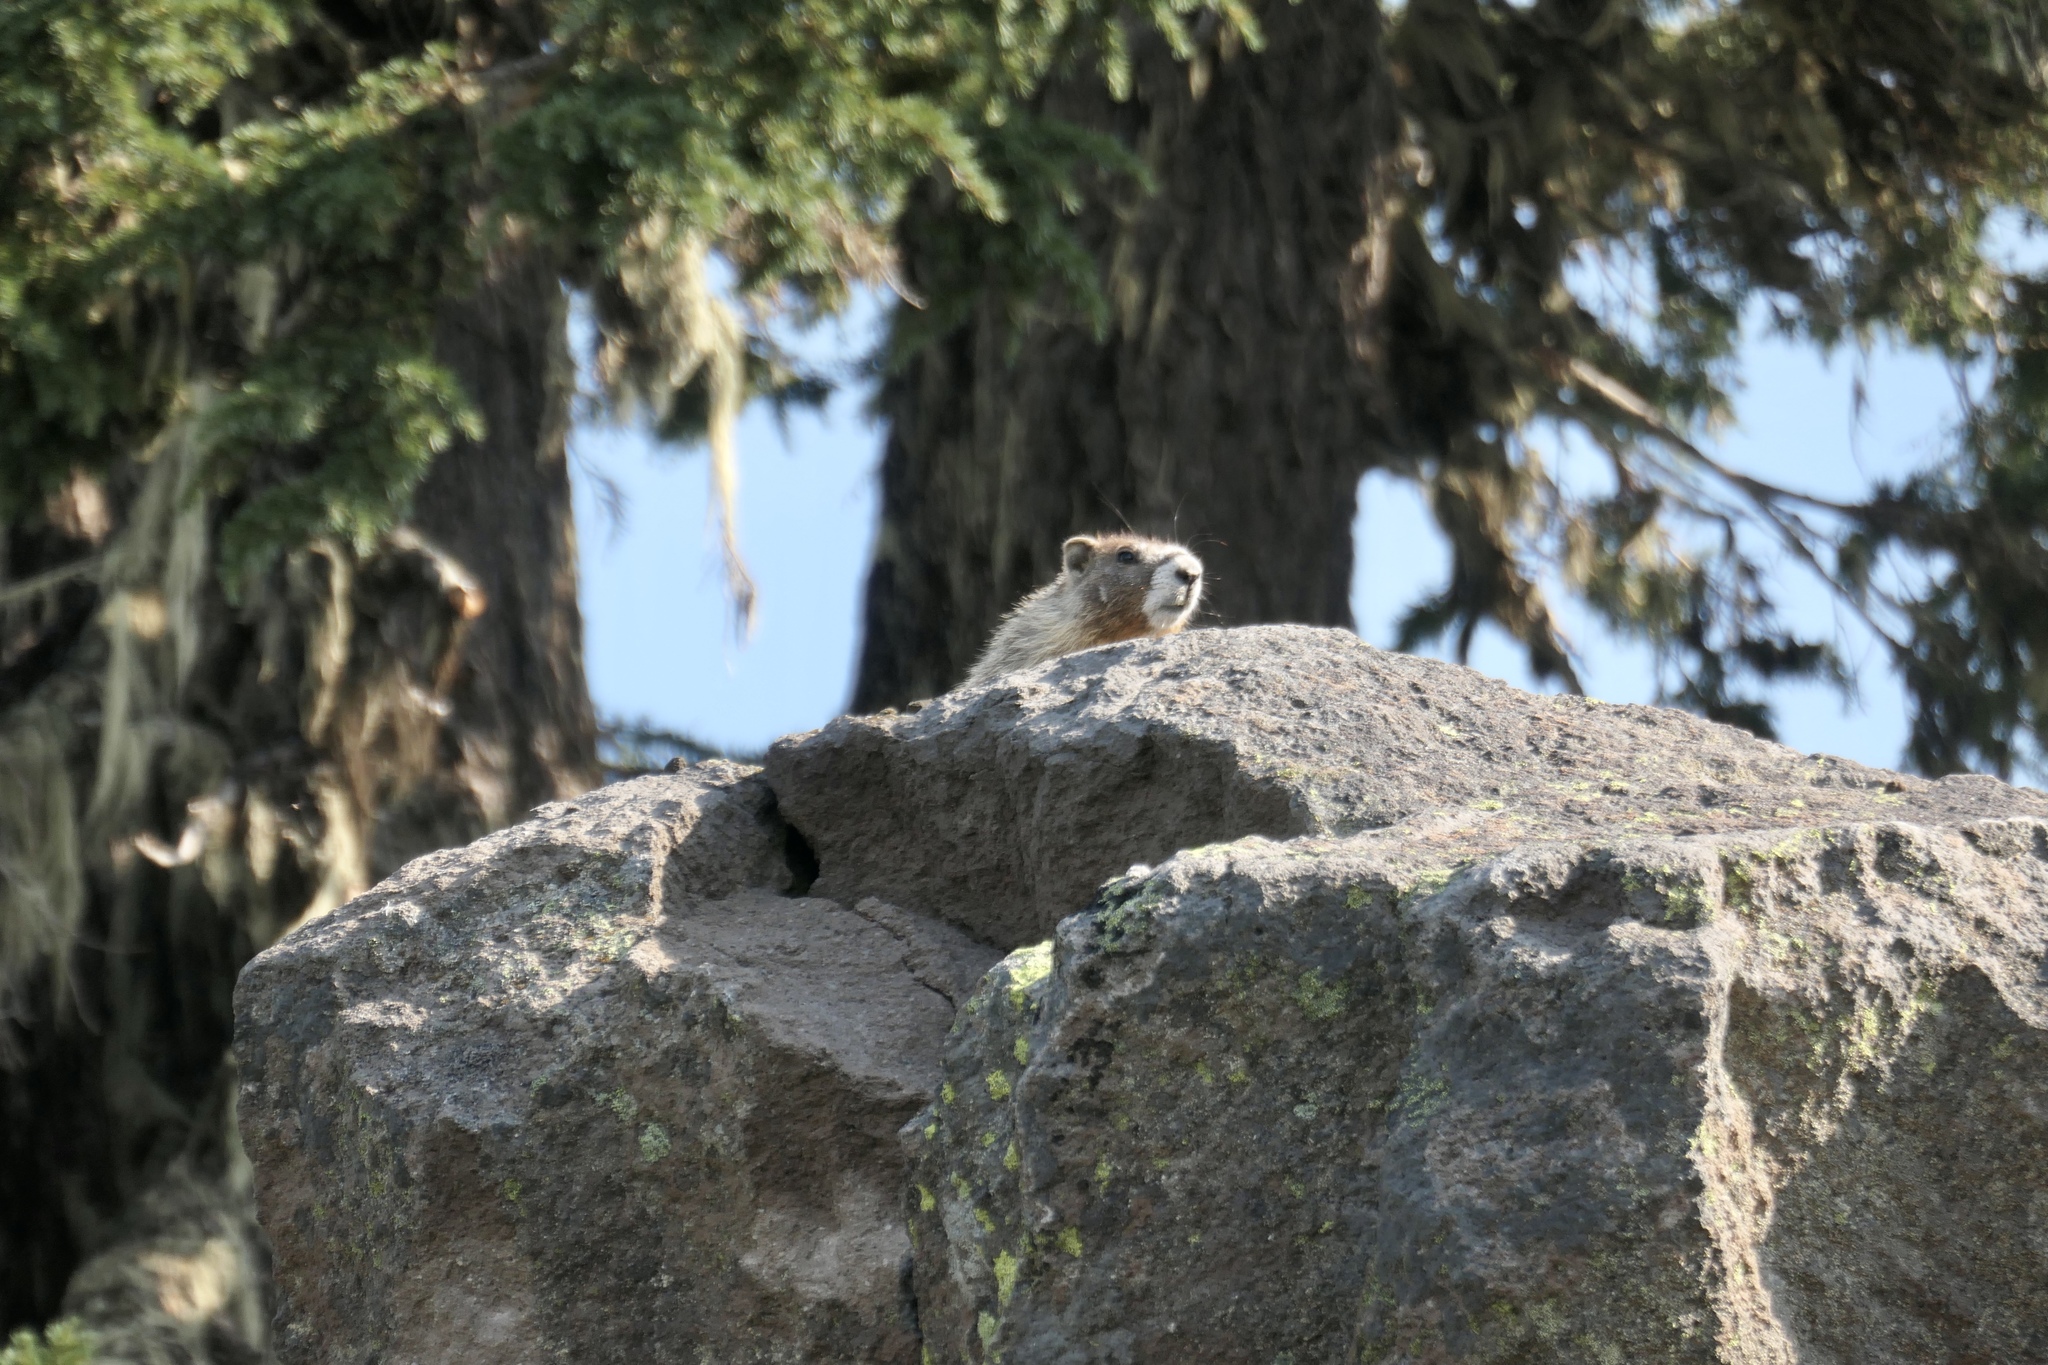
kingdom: Animalia
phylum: Chordata
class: Mammalia
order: Rodentia
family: Sciuridae
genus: Marmota
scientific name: Marmota flaviventris
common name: Yellow-bellied marmot
